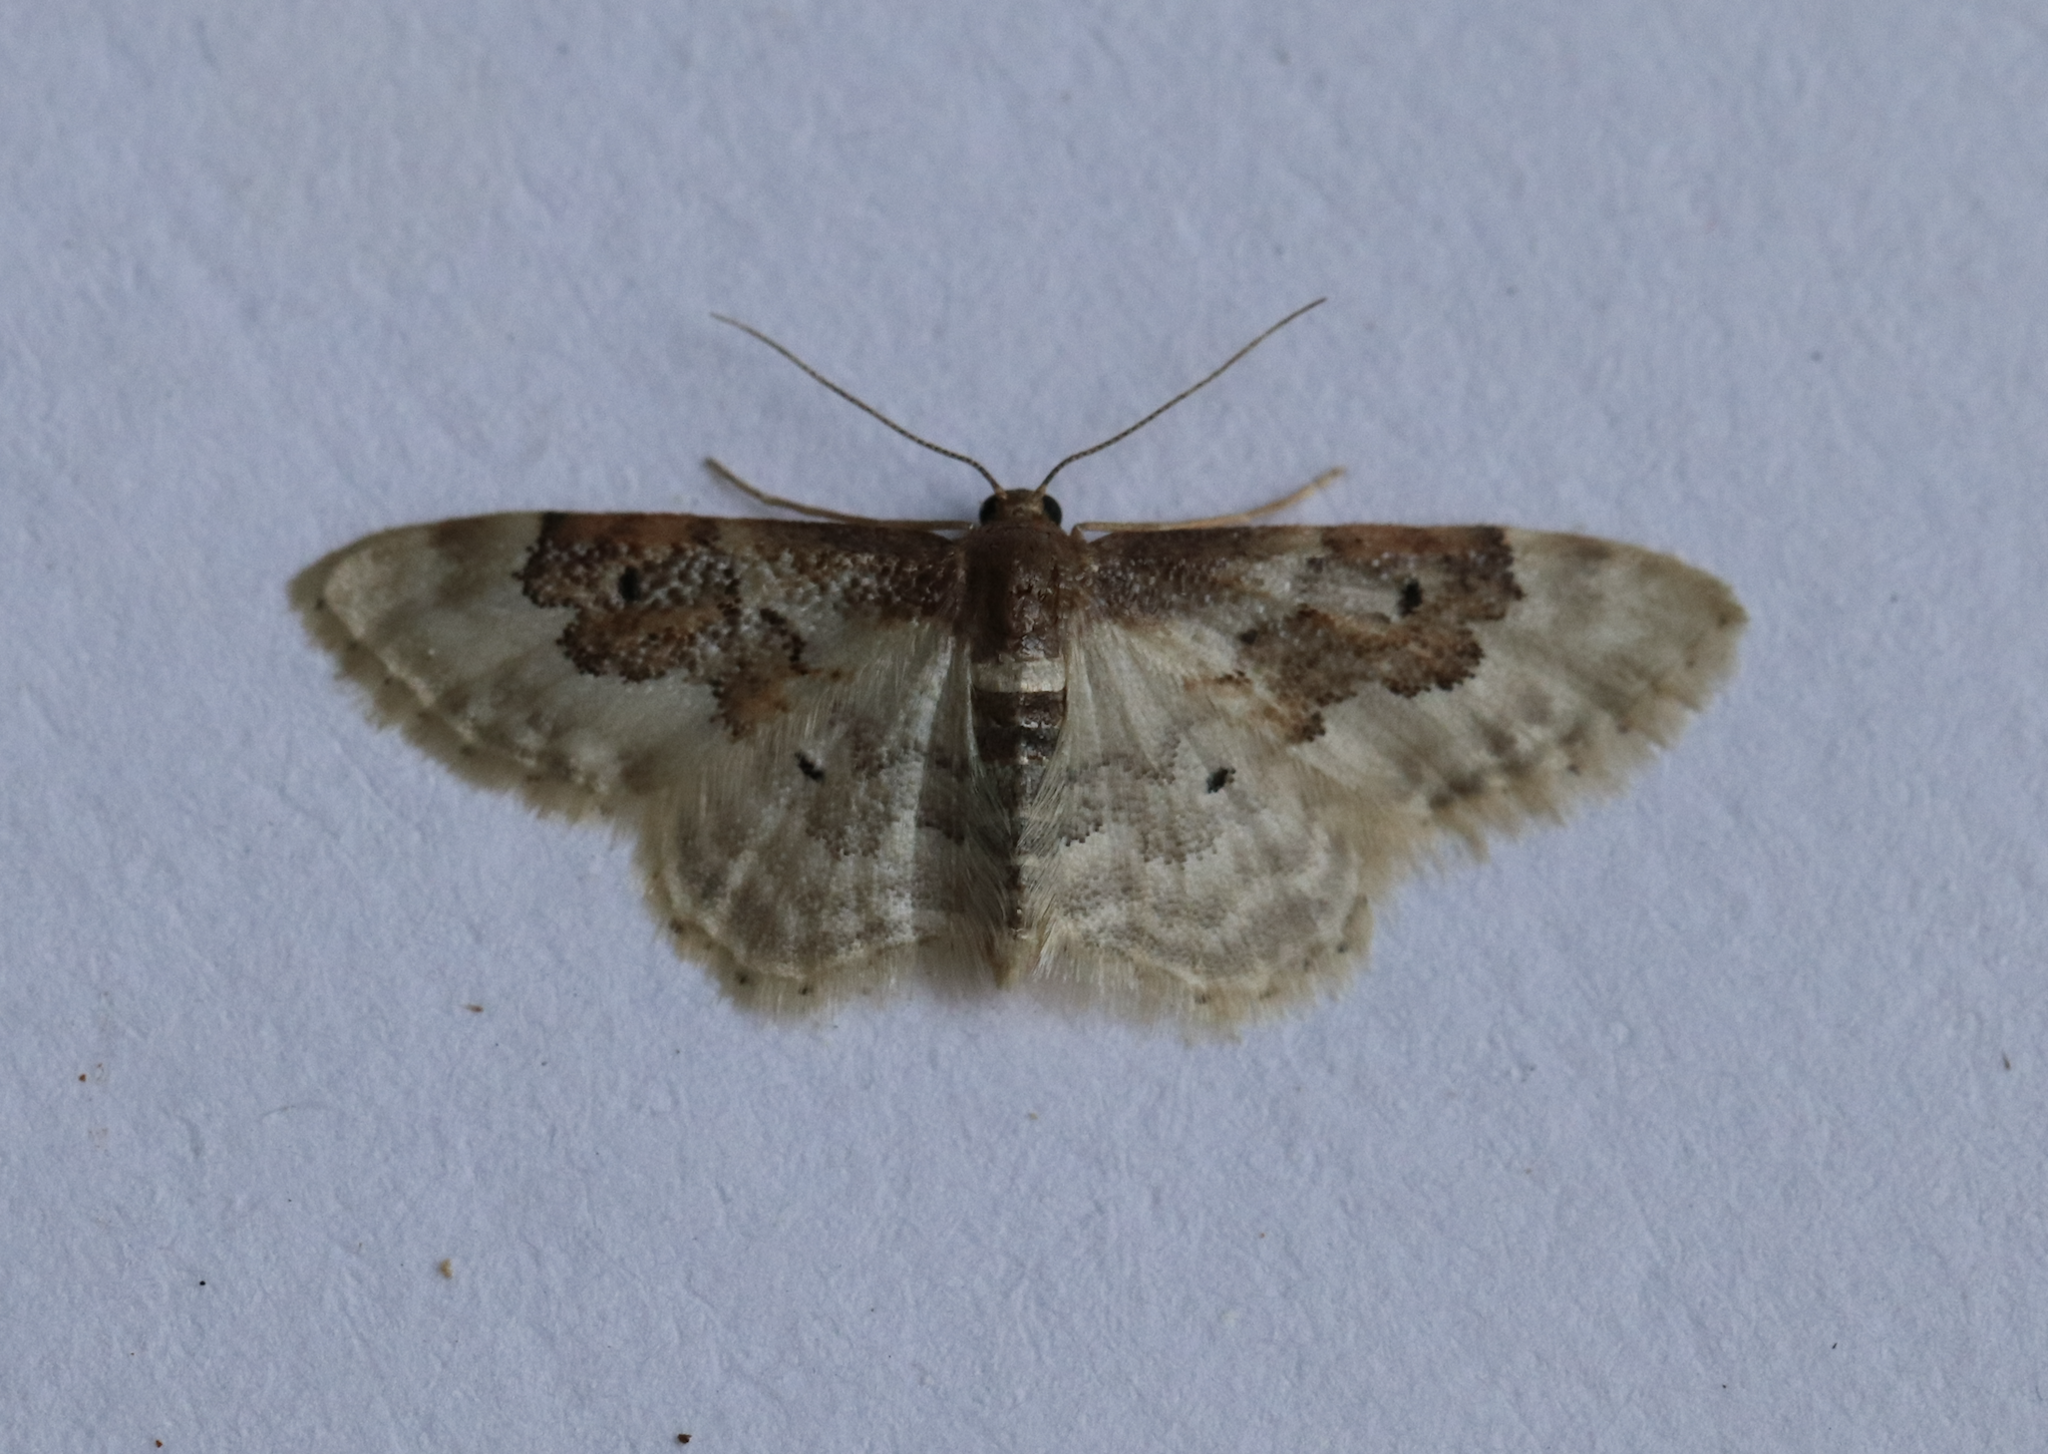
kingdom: Animalia
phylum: Arthropoda
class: Insecta
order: Lepidoptera
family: Geometridae
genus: Idaea
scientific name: Idaea rusticata
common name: Least carpet
